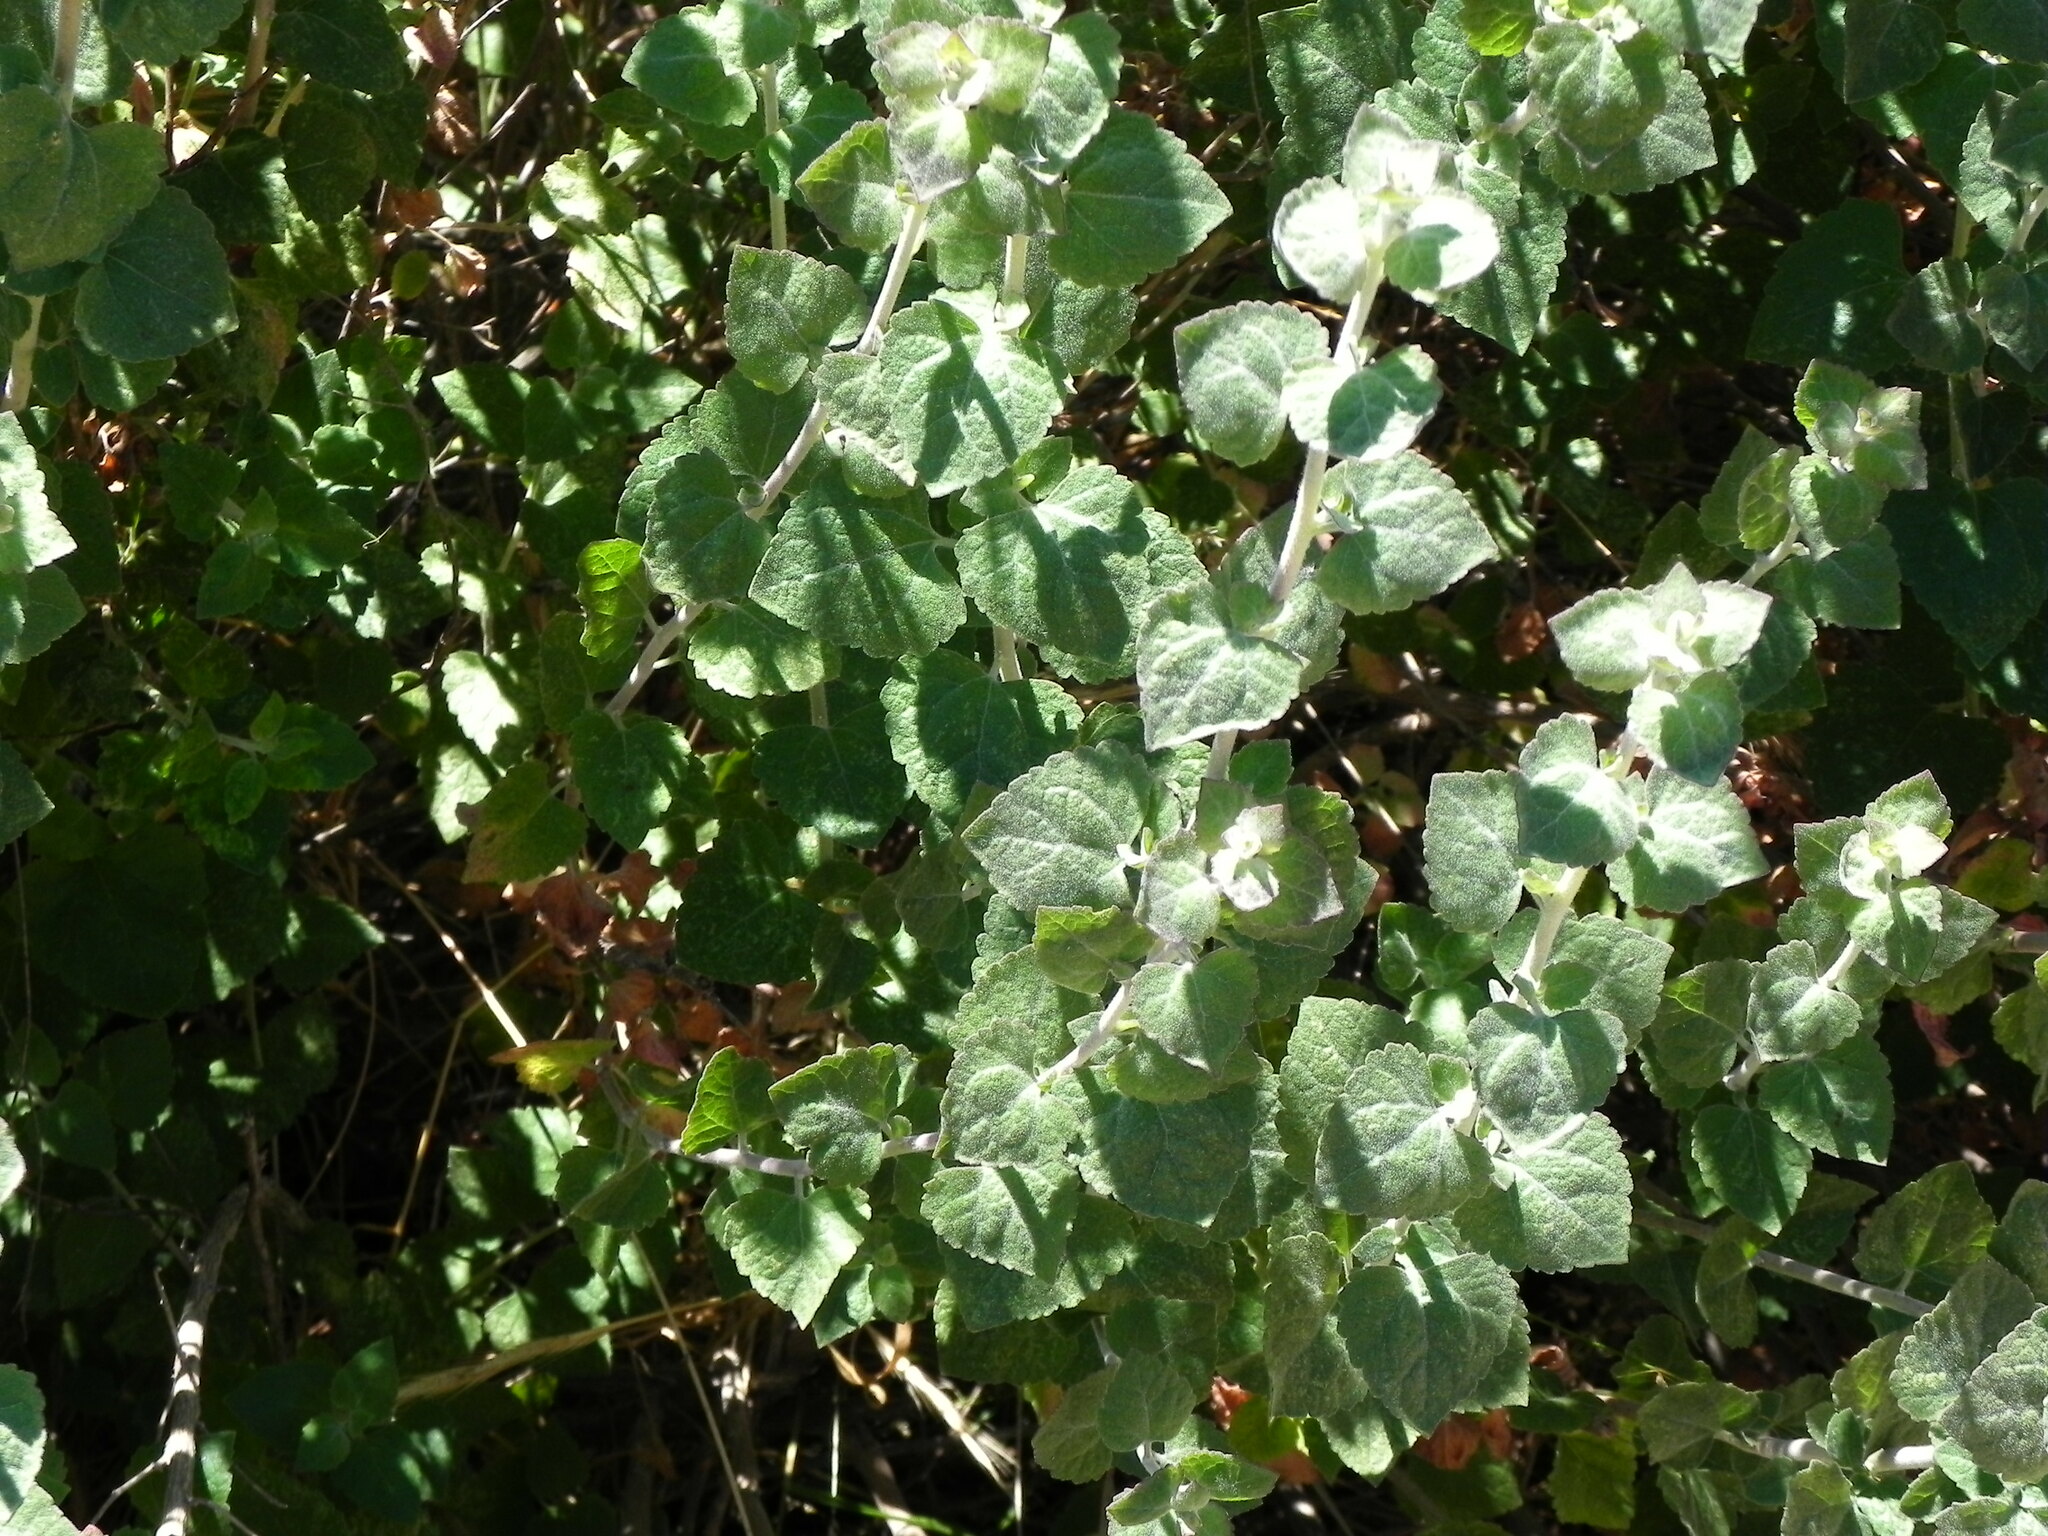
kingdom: Plantae
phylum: Tracheophyta
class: Magnoliopsida
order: Asterales
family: Asteraceae
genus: Brickellia
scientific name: Brickellia californica
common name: California brickellbush
